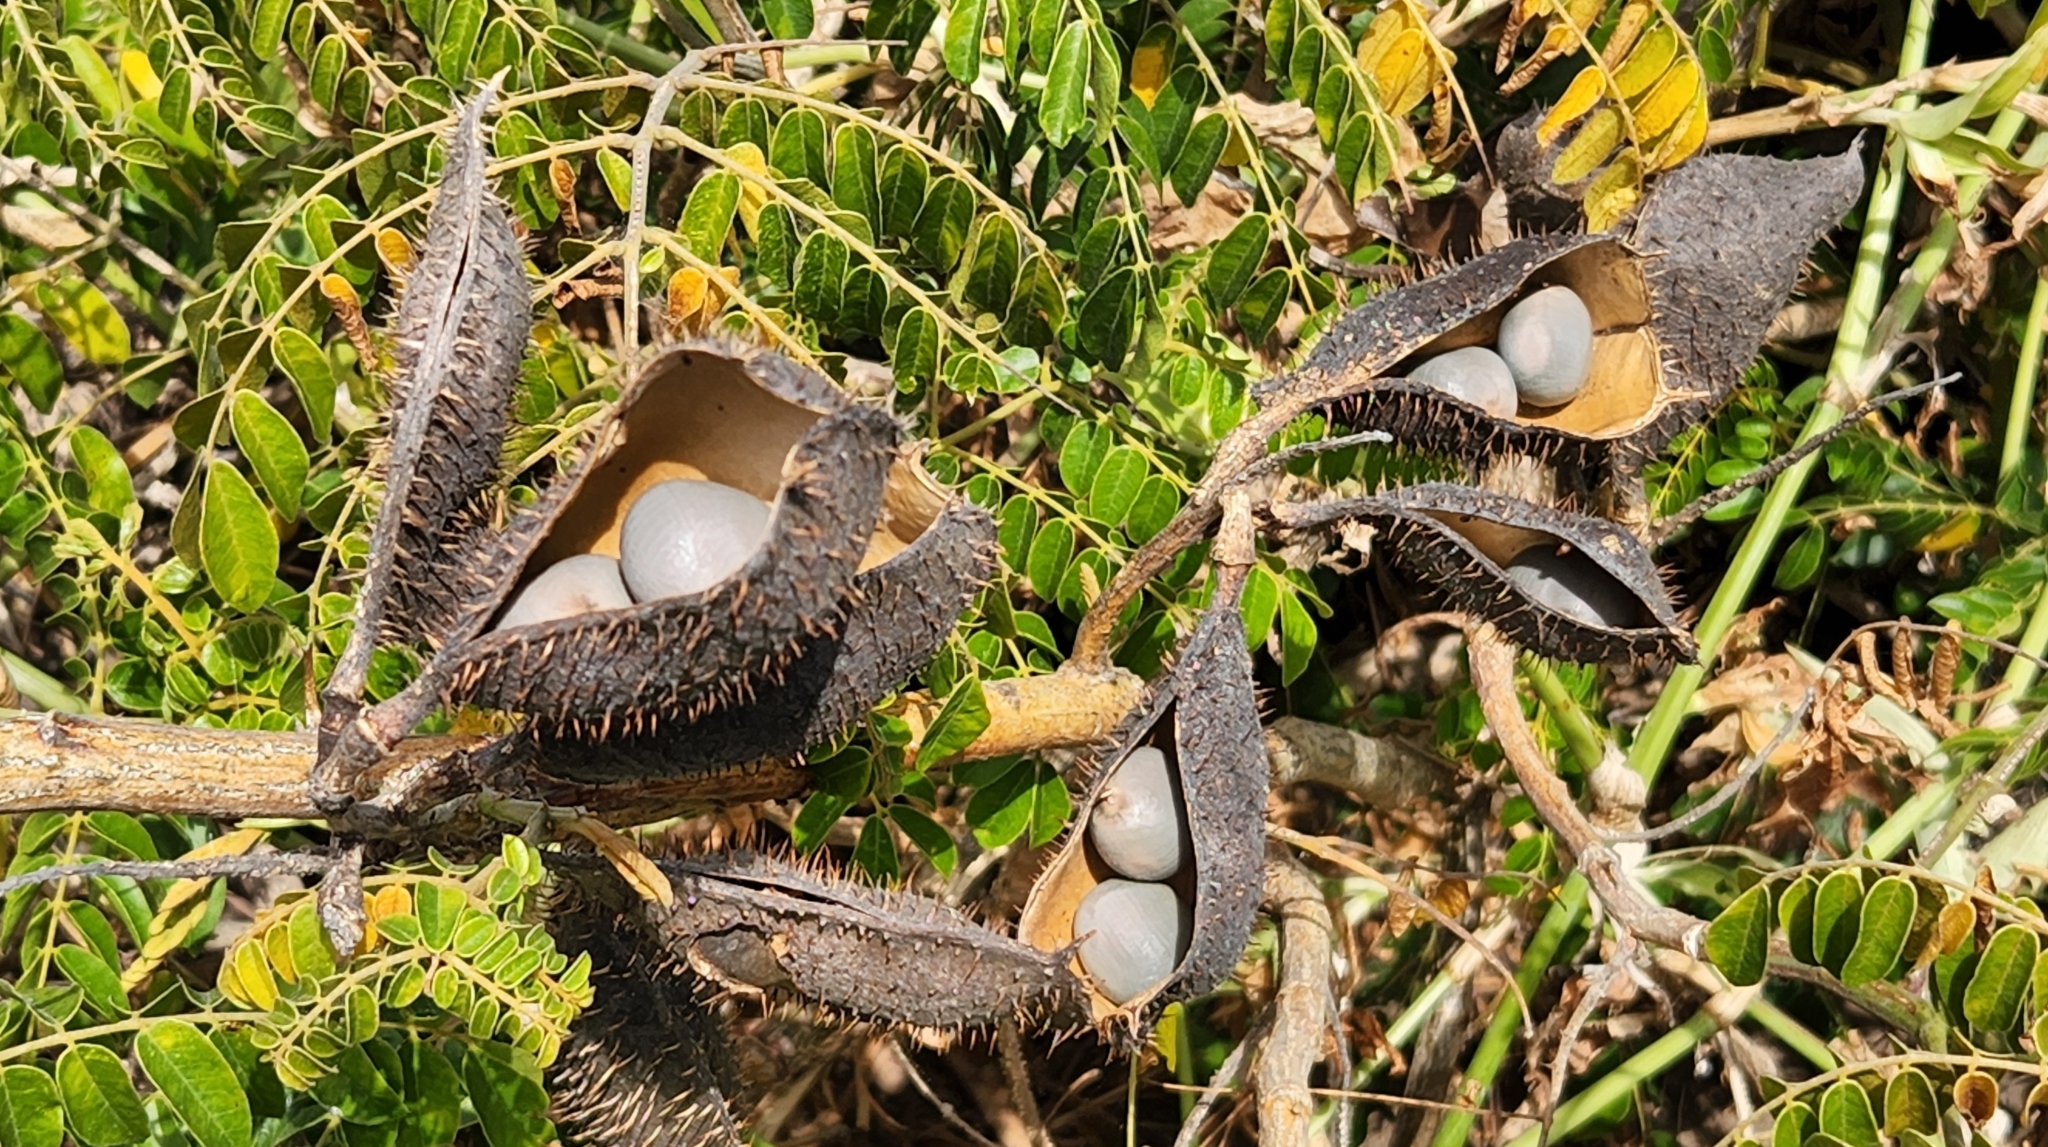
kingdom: Plantae
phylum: Tracheophyta
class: Magnoliopsida
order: Fabales
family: Fabaceae
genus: Guilandina
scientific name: Guilandina bonduc
